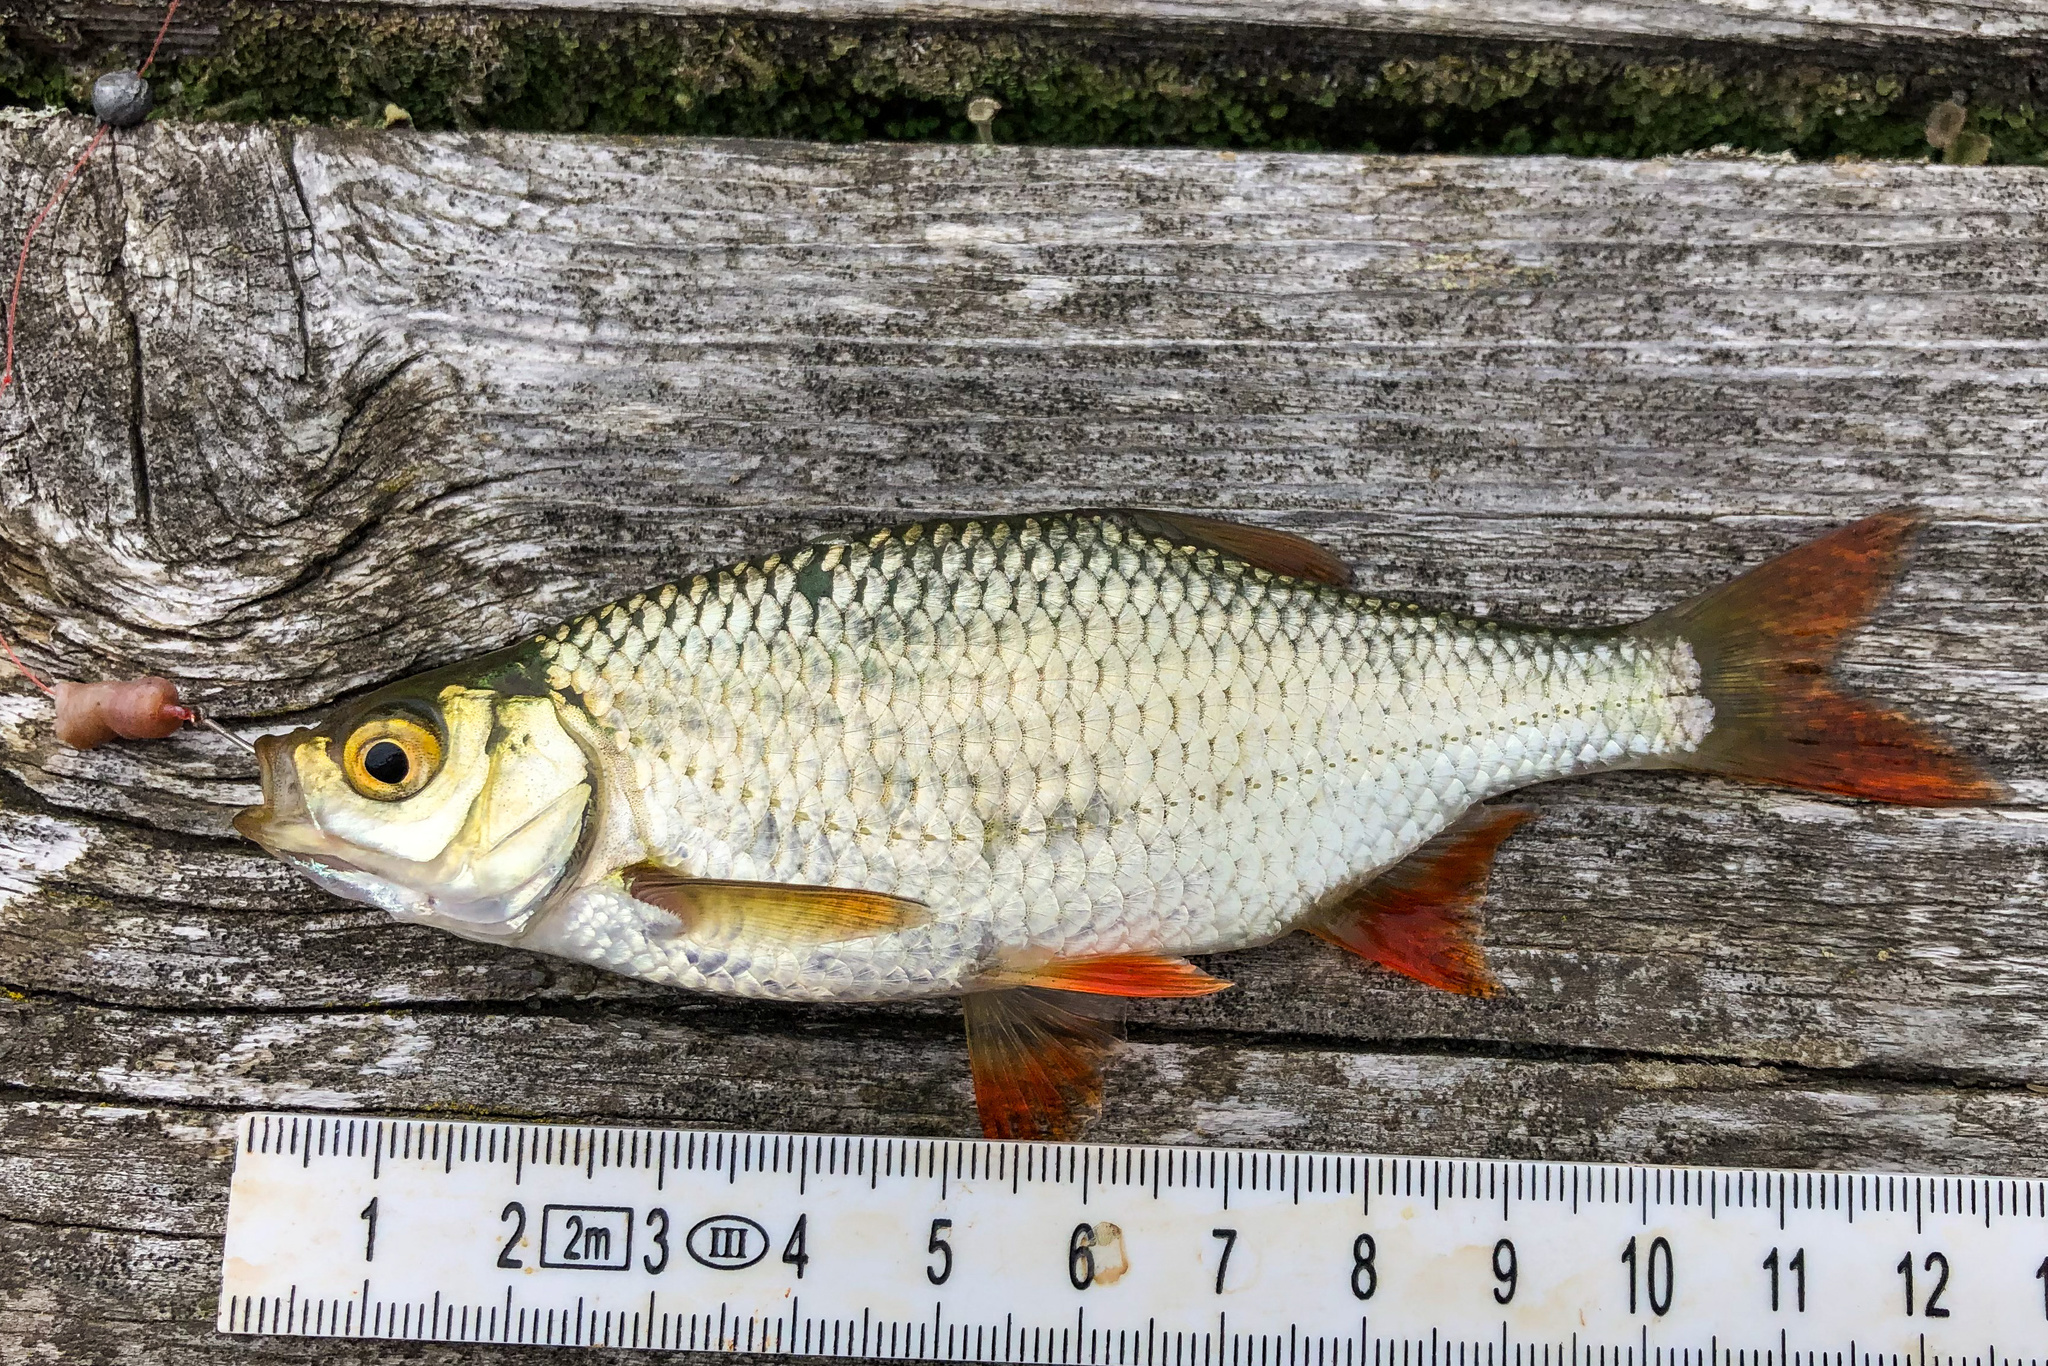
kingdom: Animalia
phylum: Chordata
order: Cypriniformes
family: Cyprinidae
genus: Scardinius
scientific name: Scardinius erythrophthalmus
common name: Rudd
